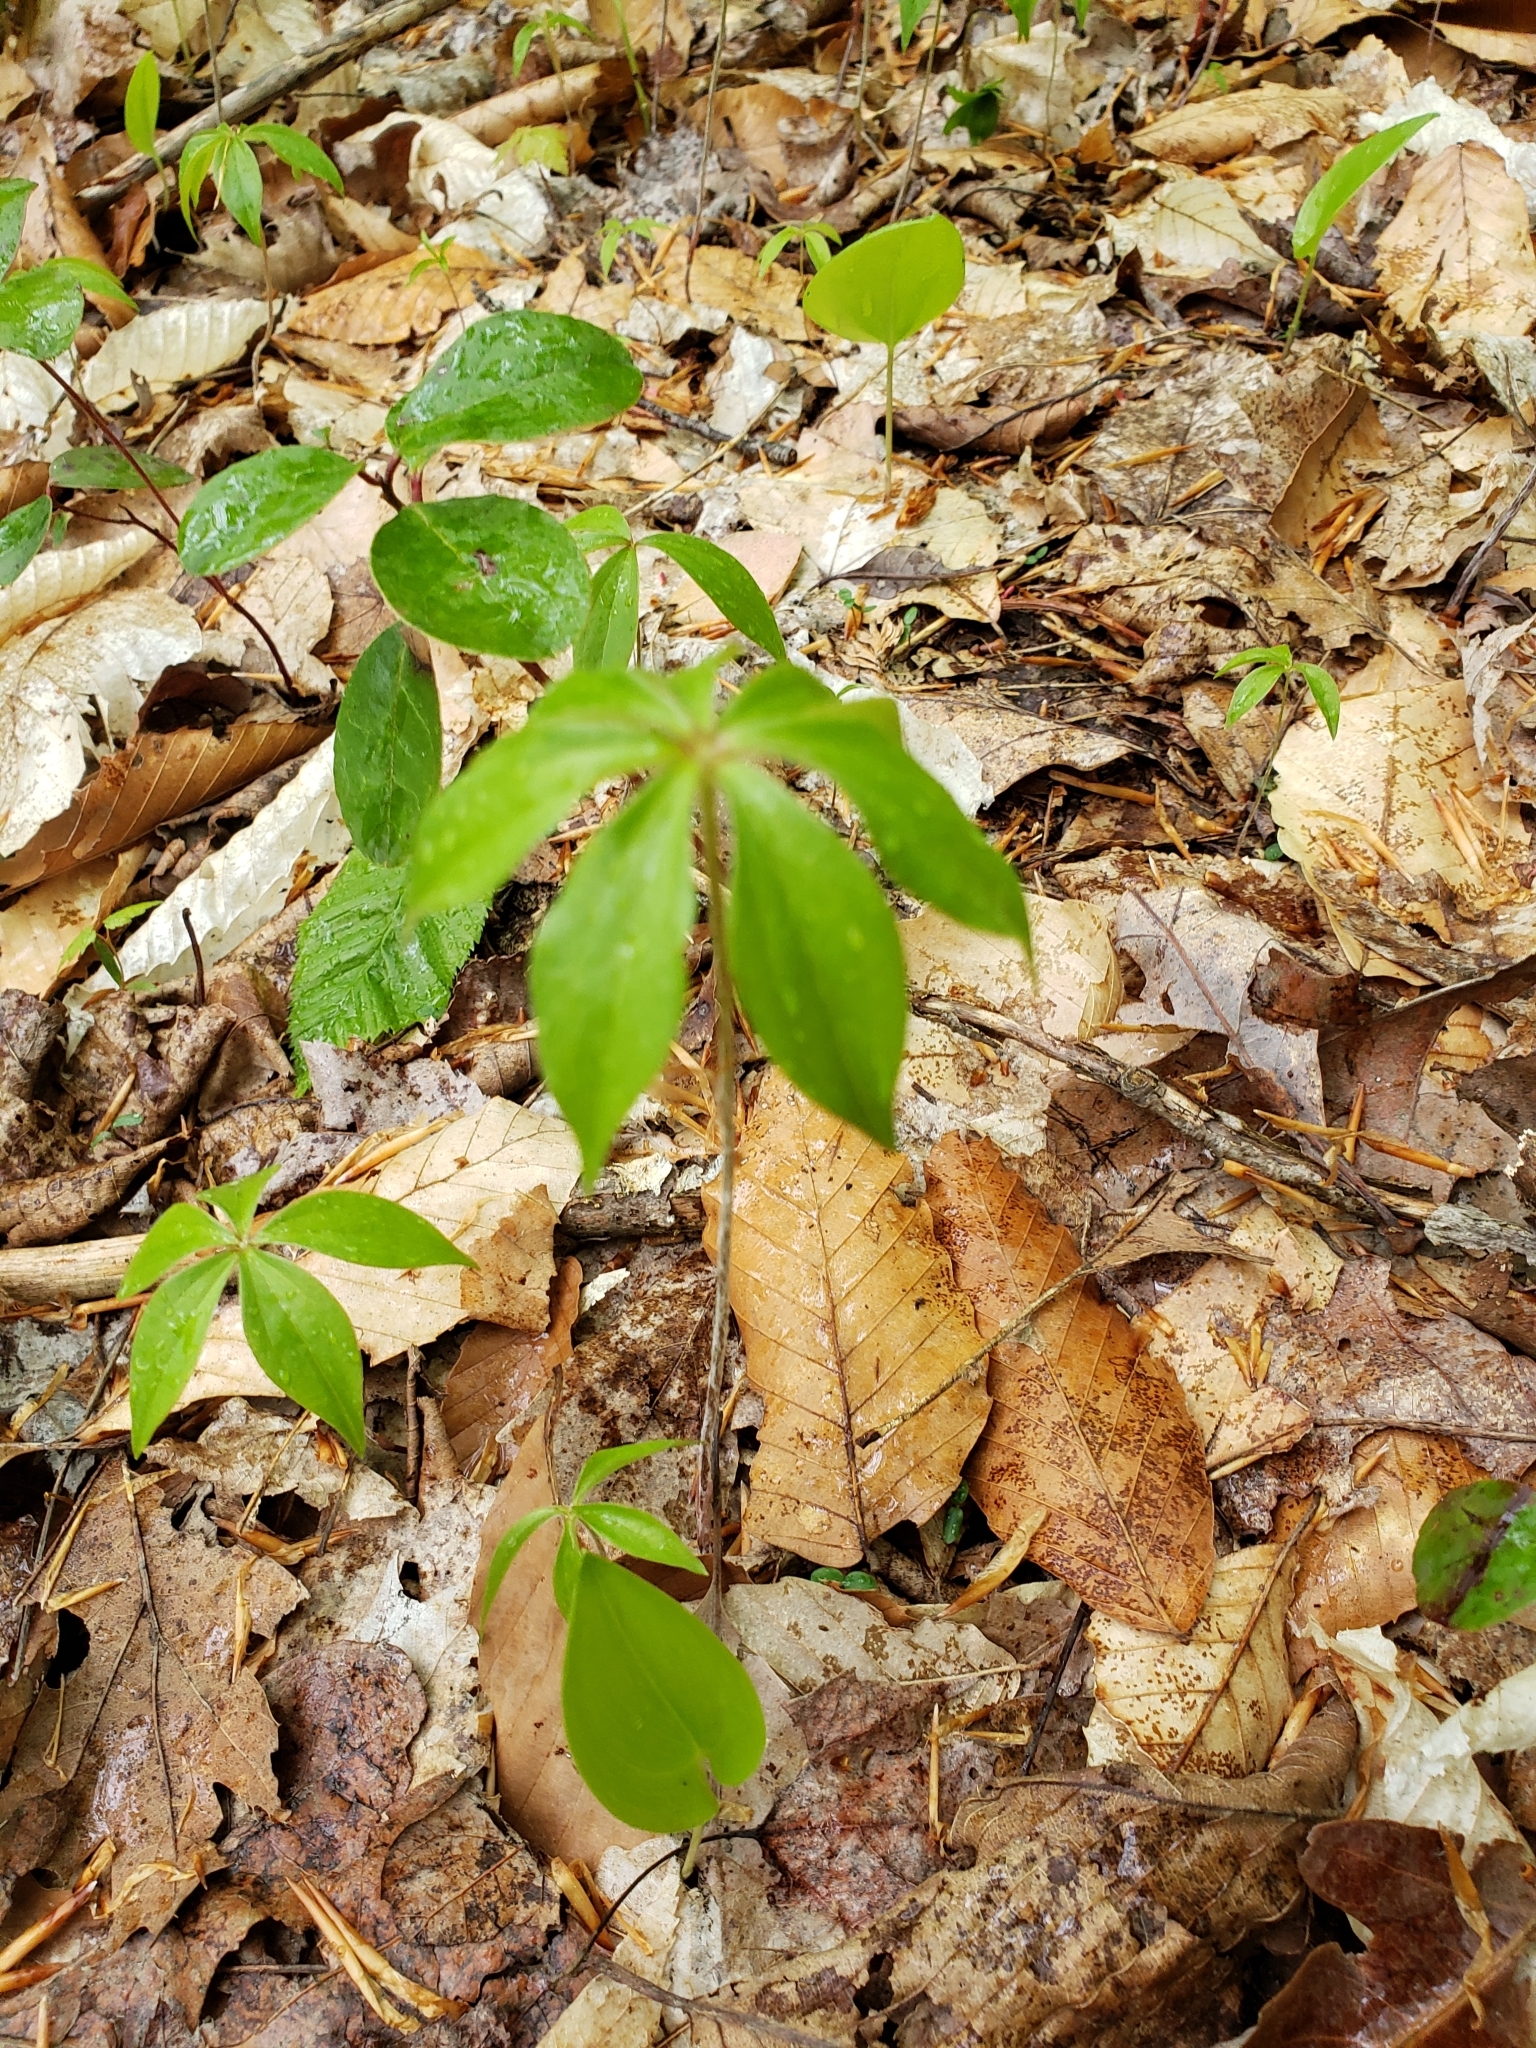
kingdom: Plantae
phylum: Tracheophyta
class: Liliopsida
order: Liliales
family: Liliaceae
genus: Medeola
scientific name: Medeola virginiana
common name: Indian cucumber-root
